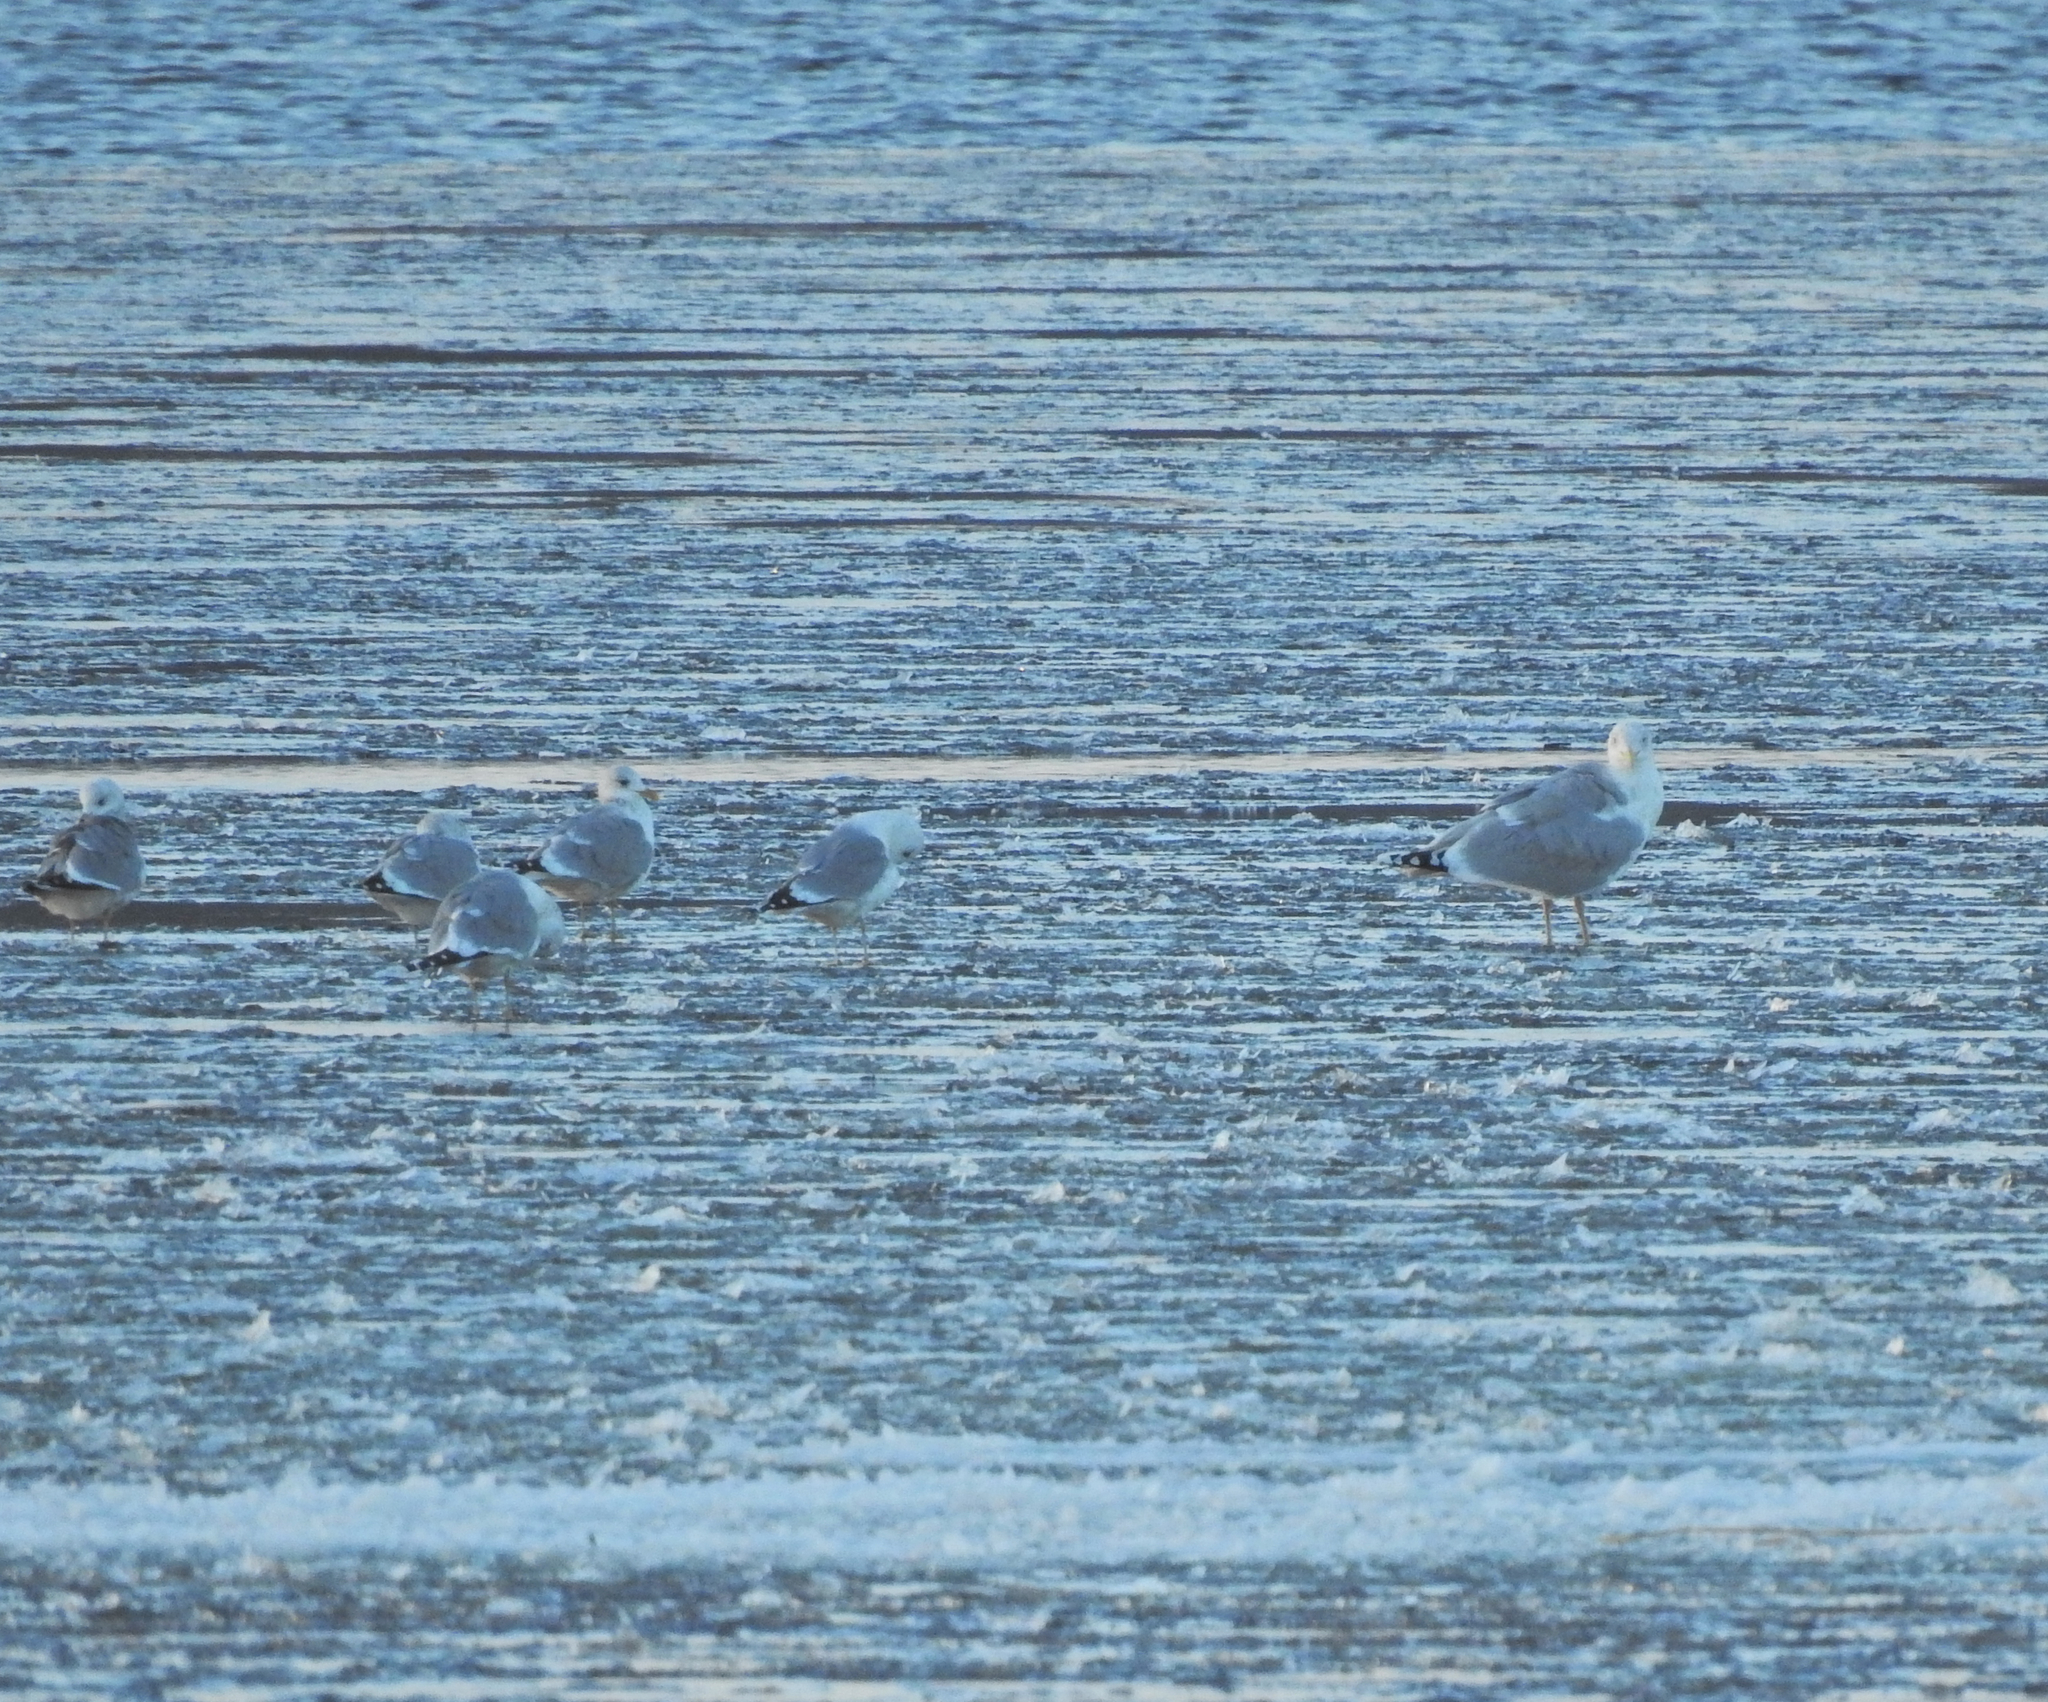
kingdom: Animalia
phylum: Chordata
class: Aves
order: Charadriiformes
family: Laridae
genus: Larus
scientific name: Larus argentatus
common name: Herring gull
